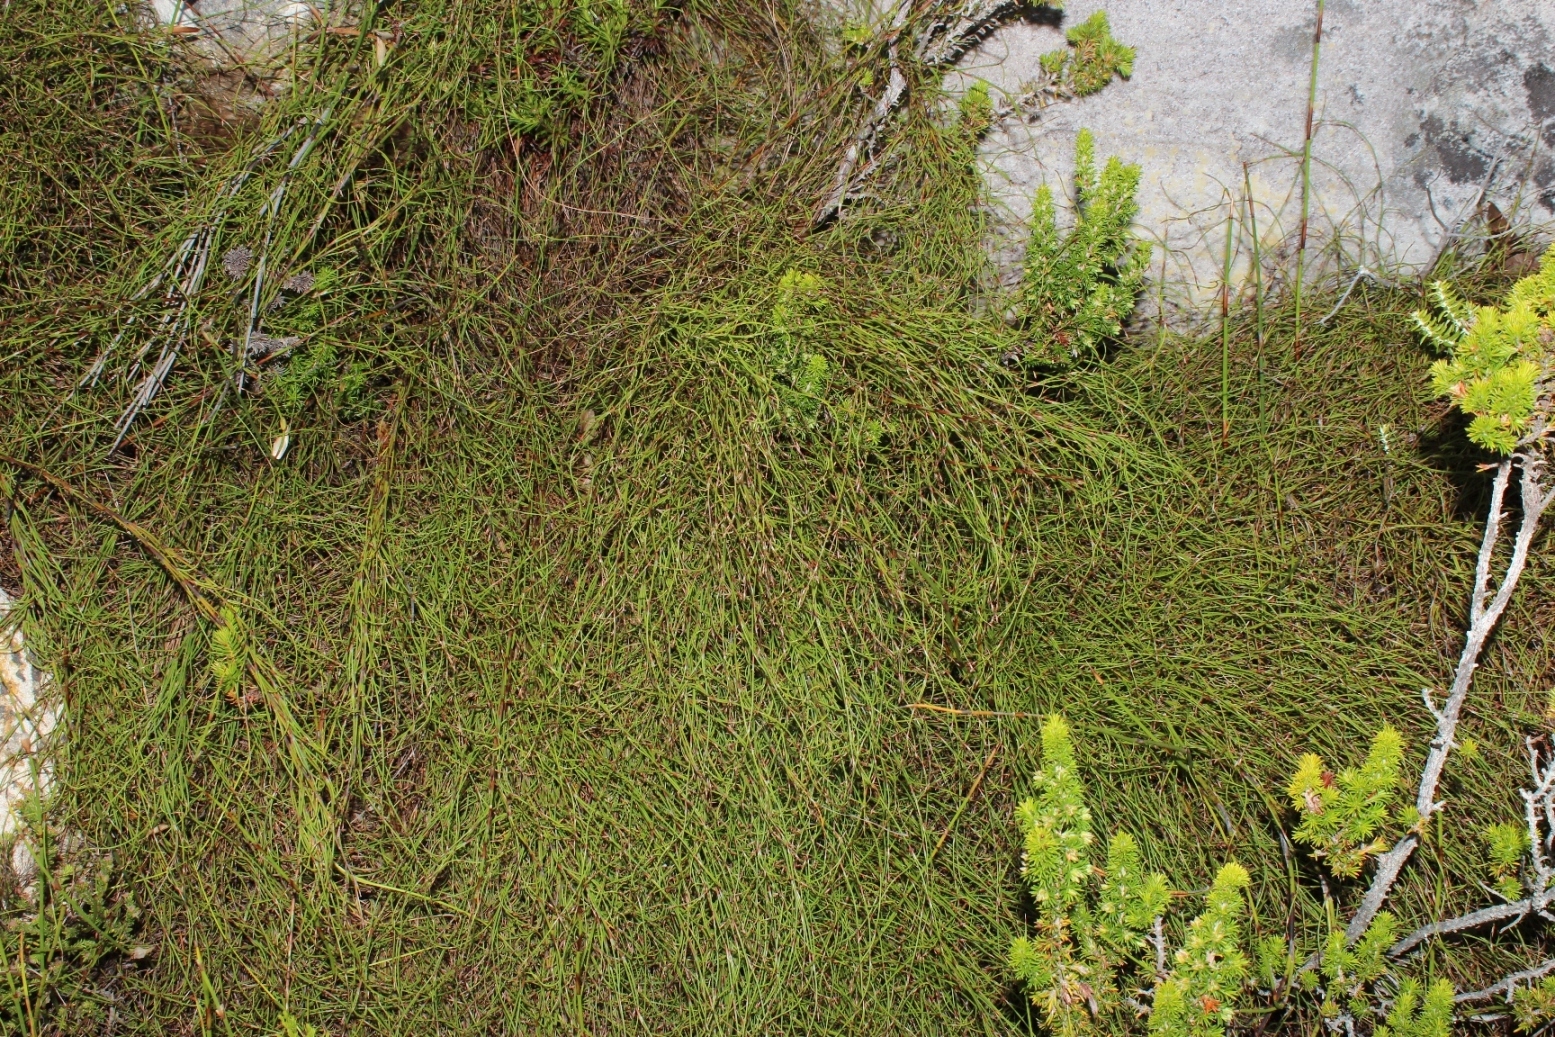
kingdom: Plantae
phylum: Tracheophyta
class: Liliopsida
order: Poales
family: Restionaceae
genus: Restio
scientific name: Restio perplexus
